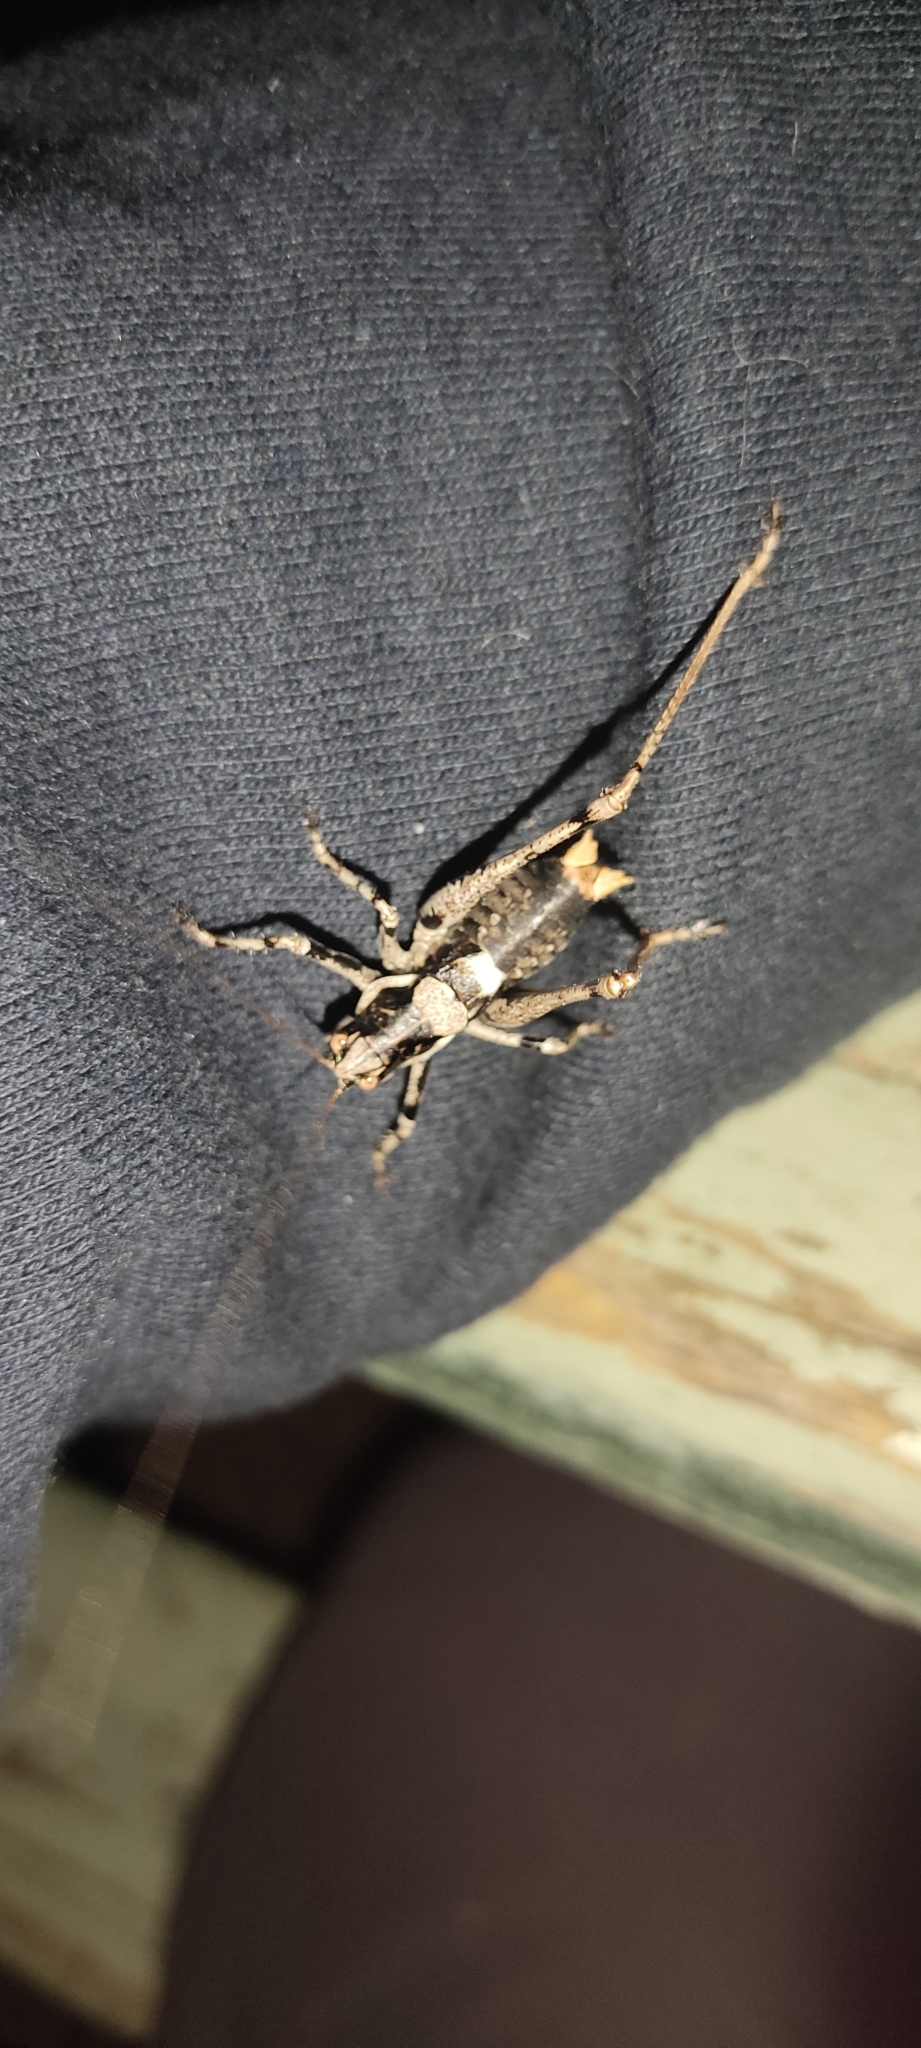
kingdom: Animalia
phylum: Arthropoda
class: Insecta
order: Orthoptera
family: Tettigoniidae
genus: Antaxius
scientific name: Antaxius pedestris
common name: Common mountain bush-cricket
